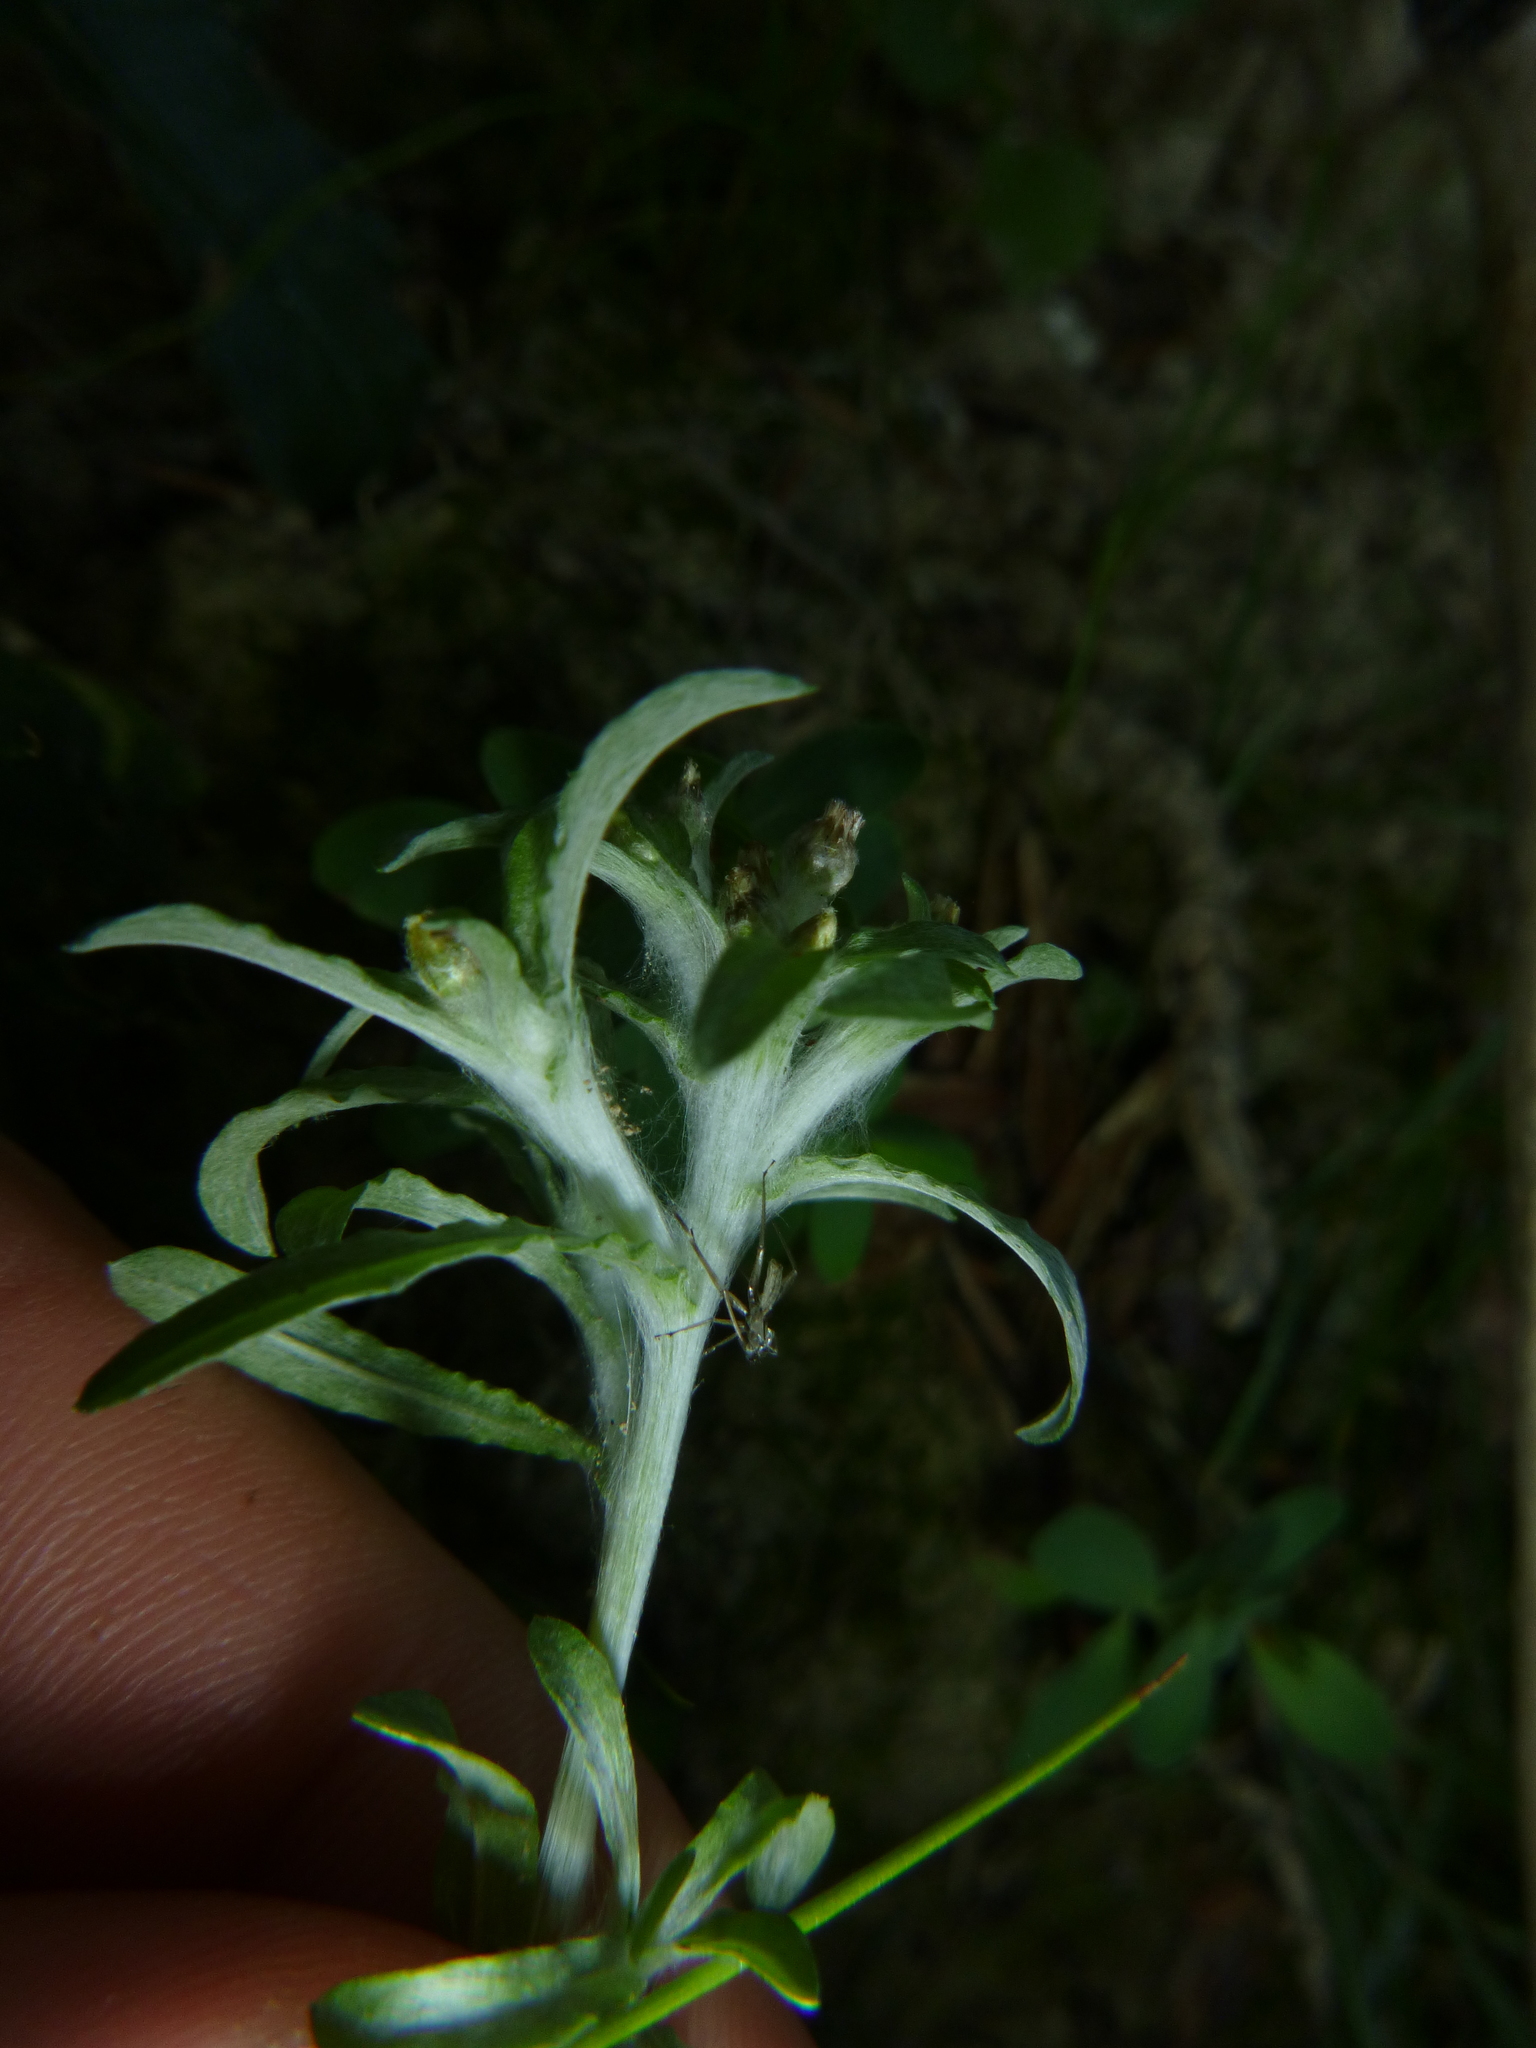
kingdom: Plantae
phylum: Tracheophyta
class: Magnoliopsida
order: Asterales
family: Asteraceae
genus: Gnaphalium
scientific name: Gnaphalium uliginosum
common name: Marsh cudweed
